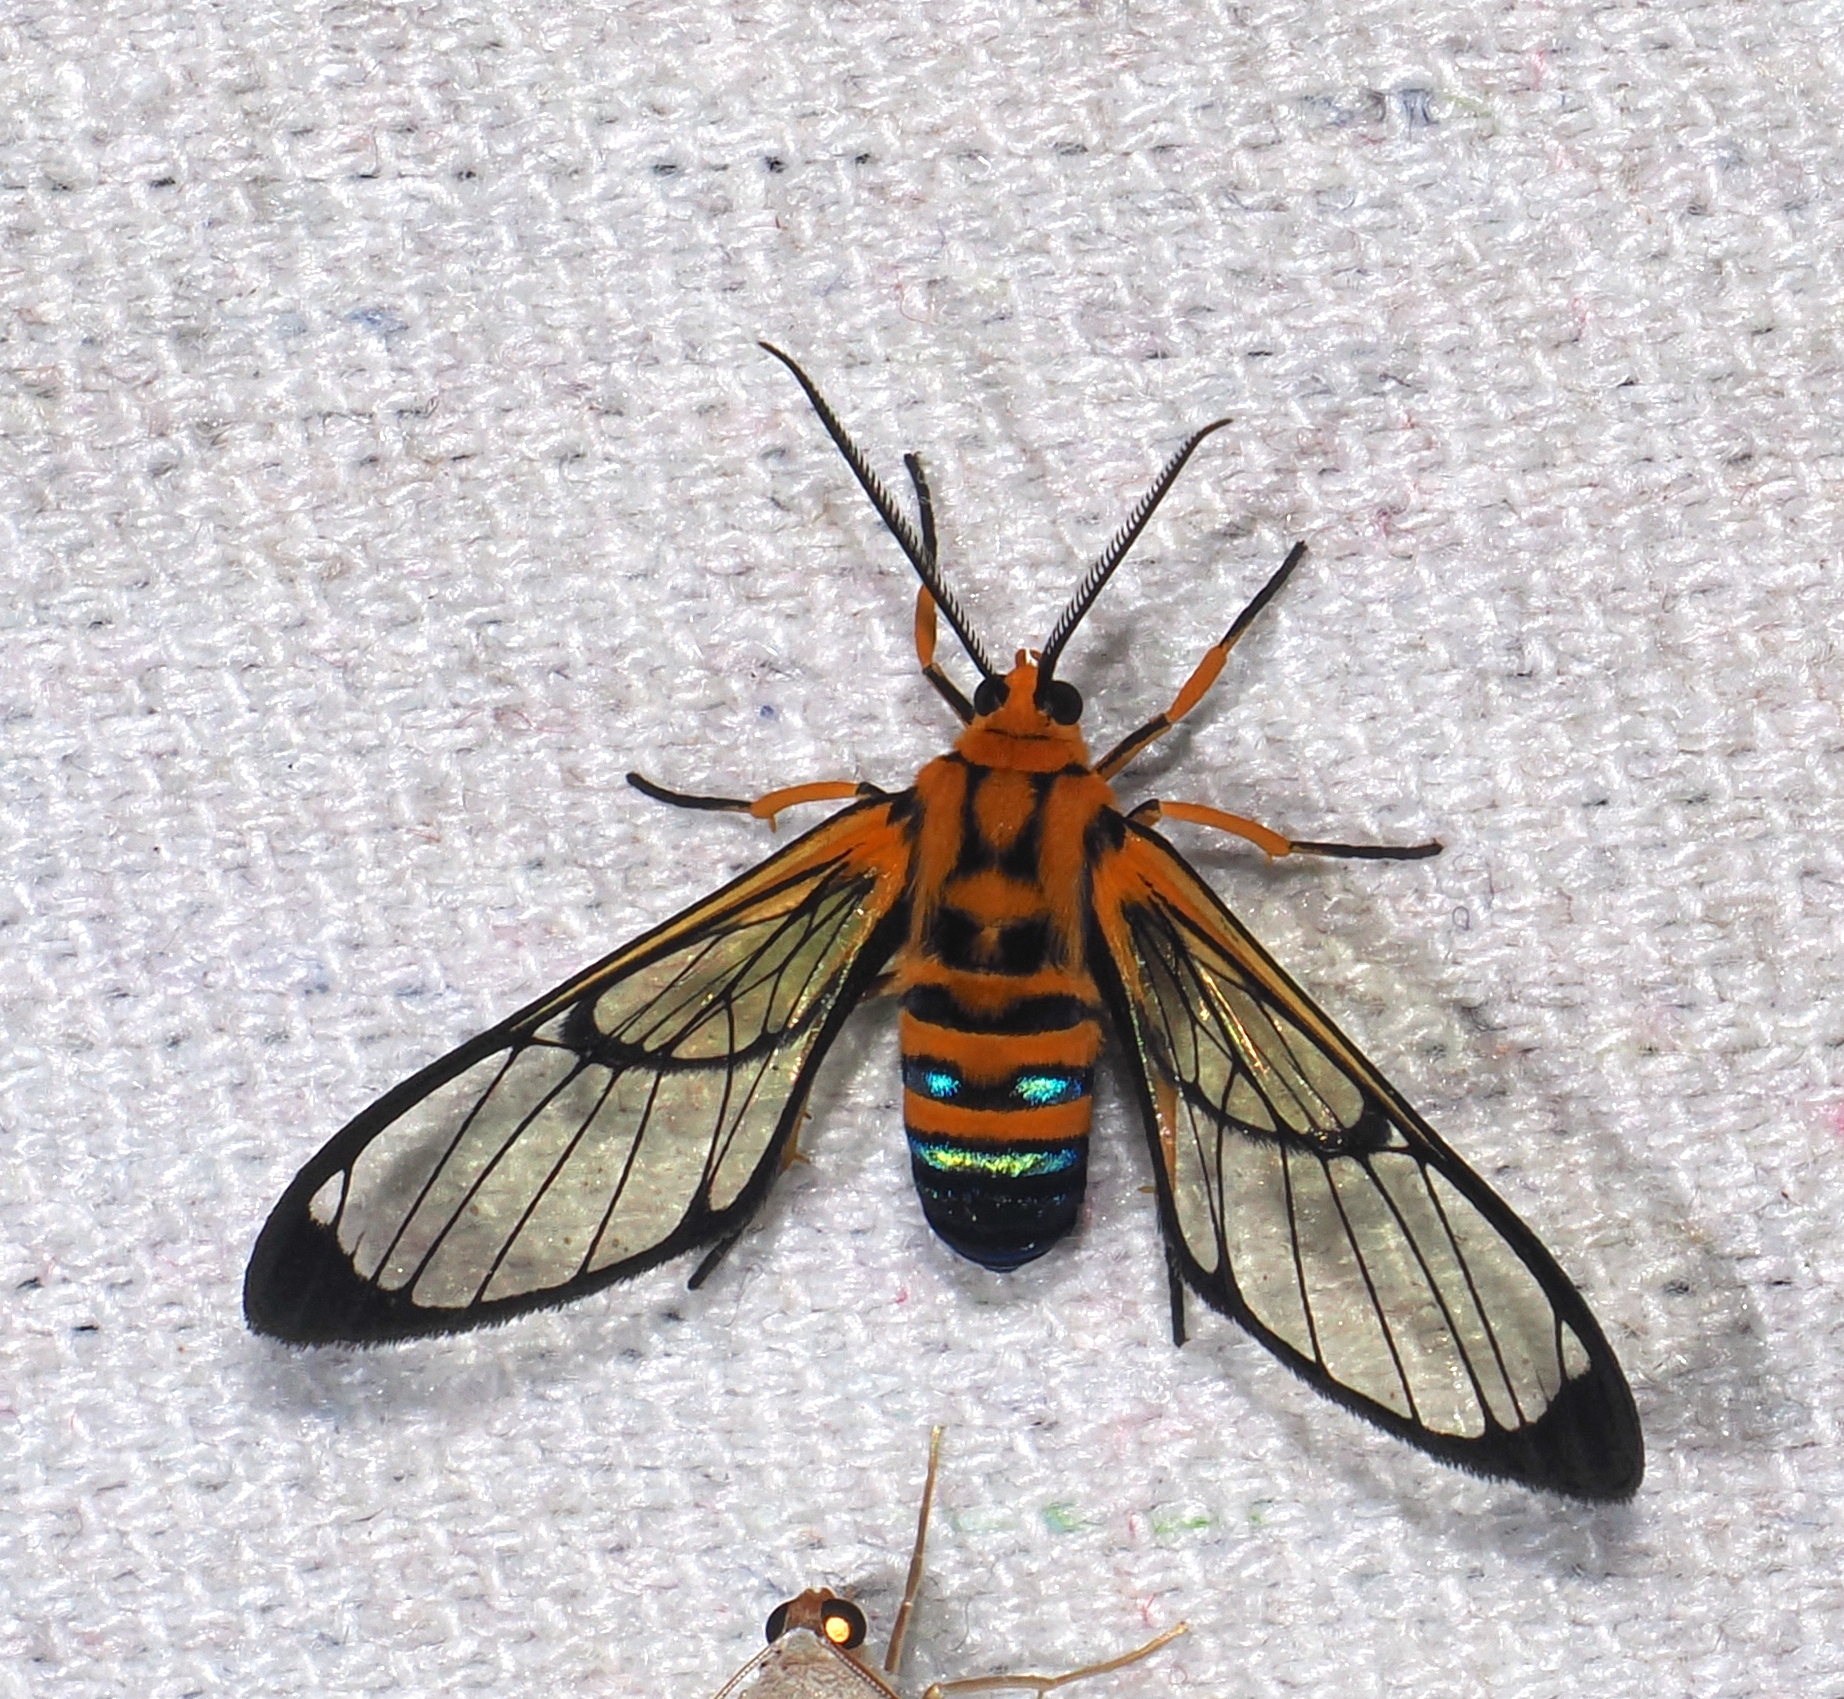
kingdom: Animalia
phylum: Arthropoda
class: Insecta
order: Lepidoptera
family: Erebidae
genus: Mesothen
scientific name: Mesothen nomia
